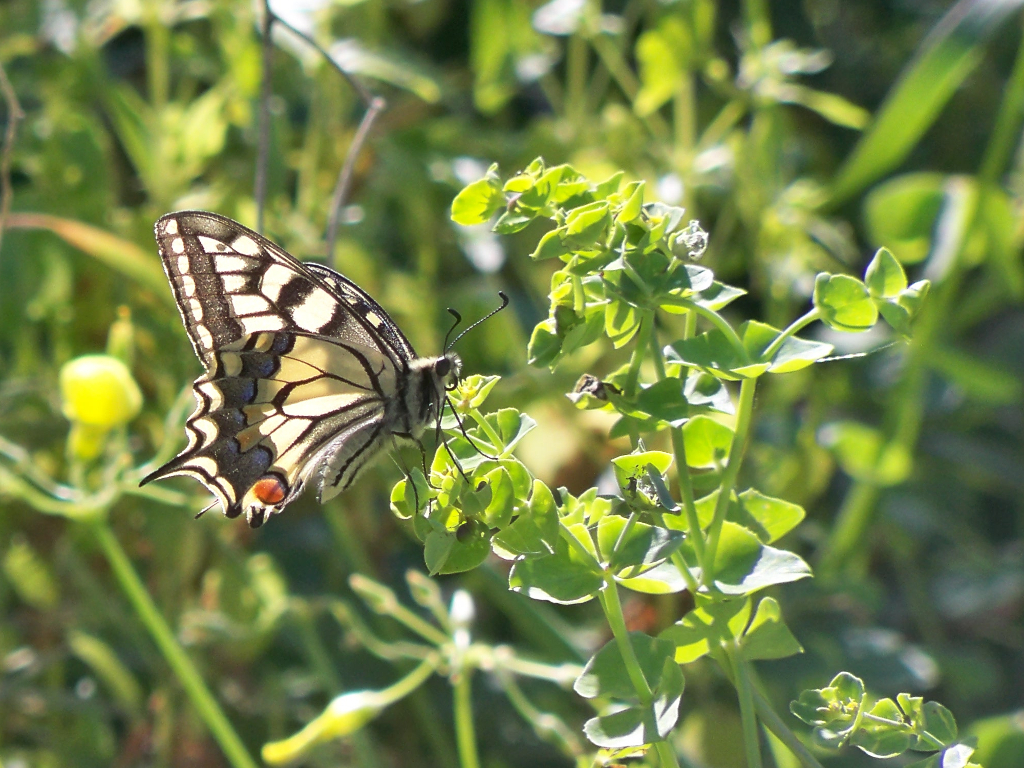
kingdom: Animalia
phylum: Arthropoda
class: Insecta
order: Lepidoptera
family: Papilionidae
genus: Papilio
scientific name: Papilio machaon
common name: Swallowtail
